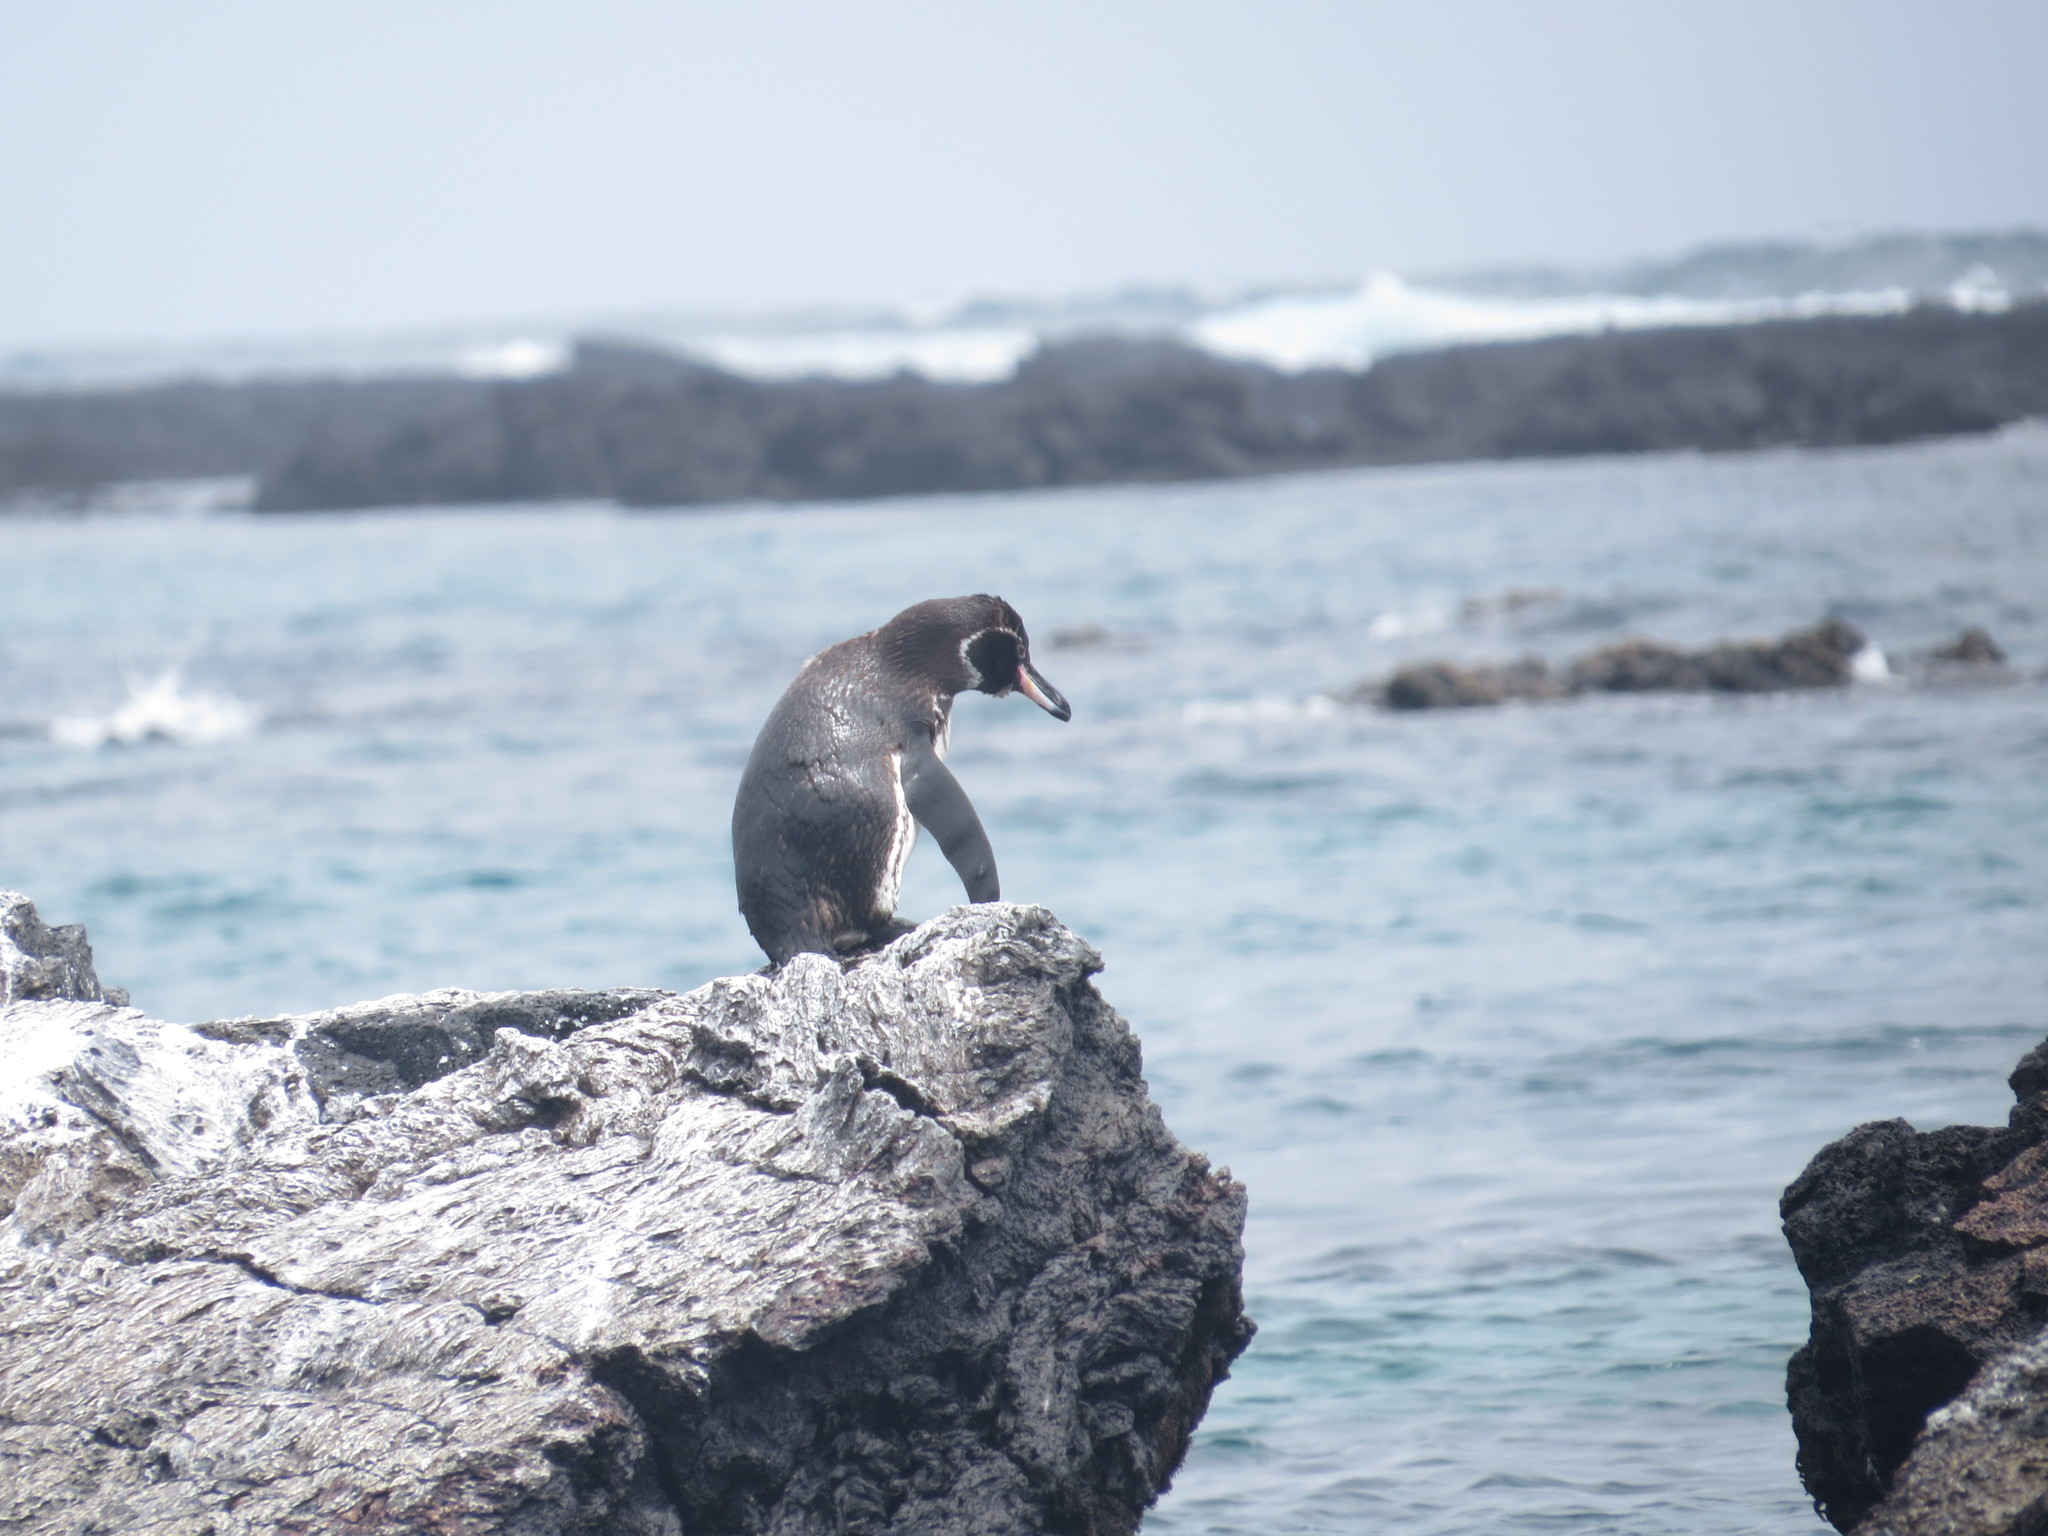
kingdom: Animalia
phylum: Chordata
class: Aves
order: Sphenisciformes
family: Spheniscidae
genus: Spheniscus
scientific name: Spheniscus mendiculus
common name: Galapagos penguin
